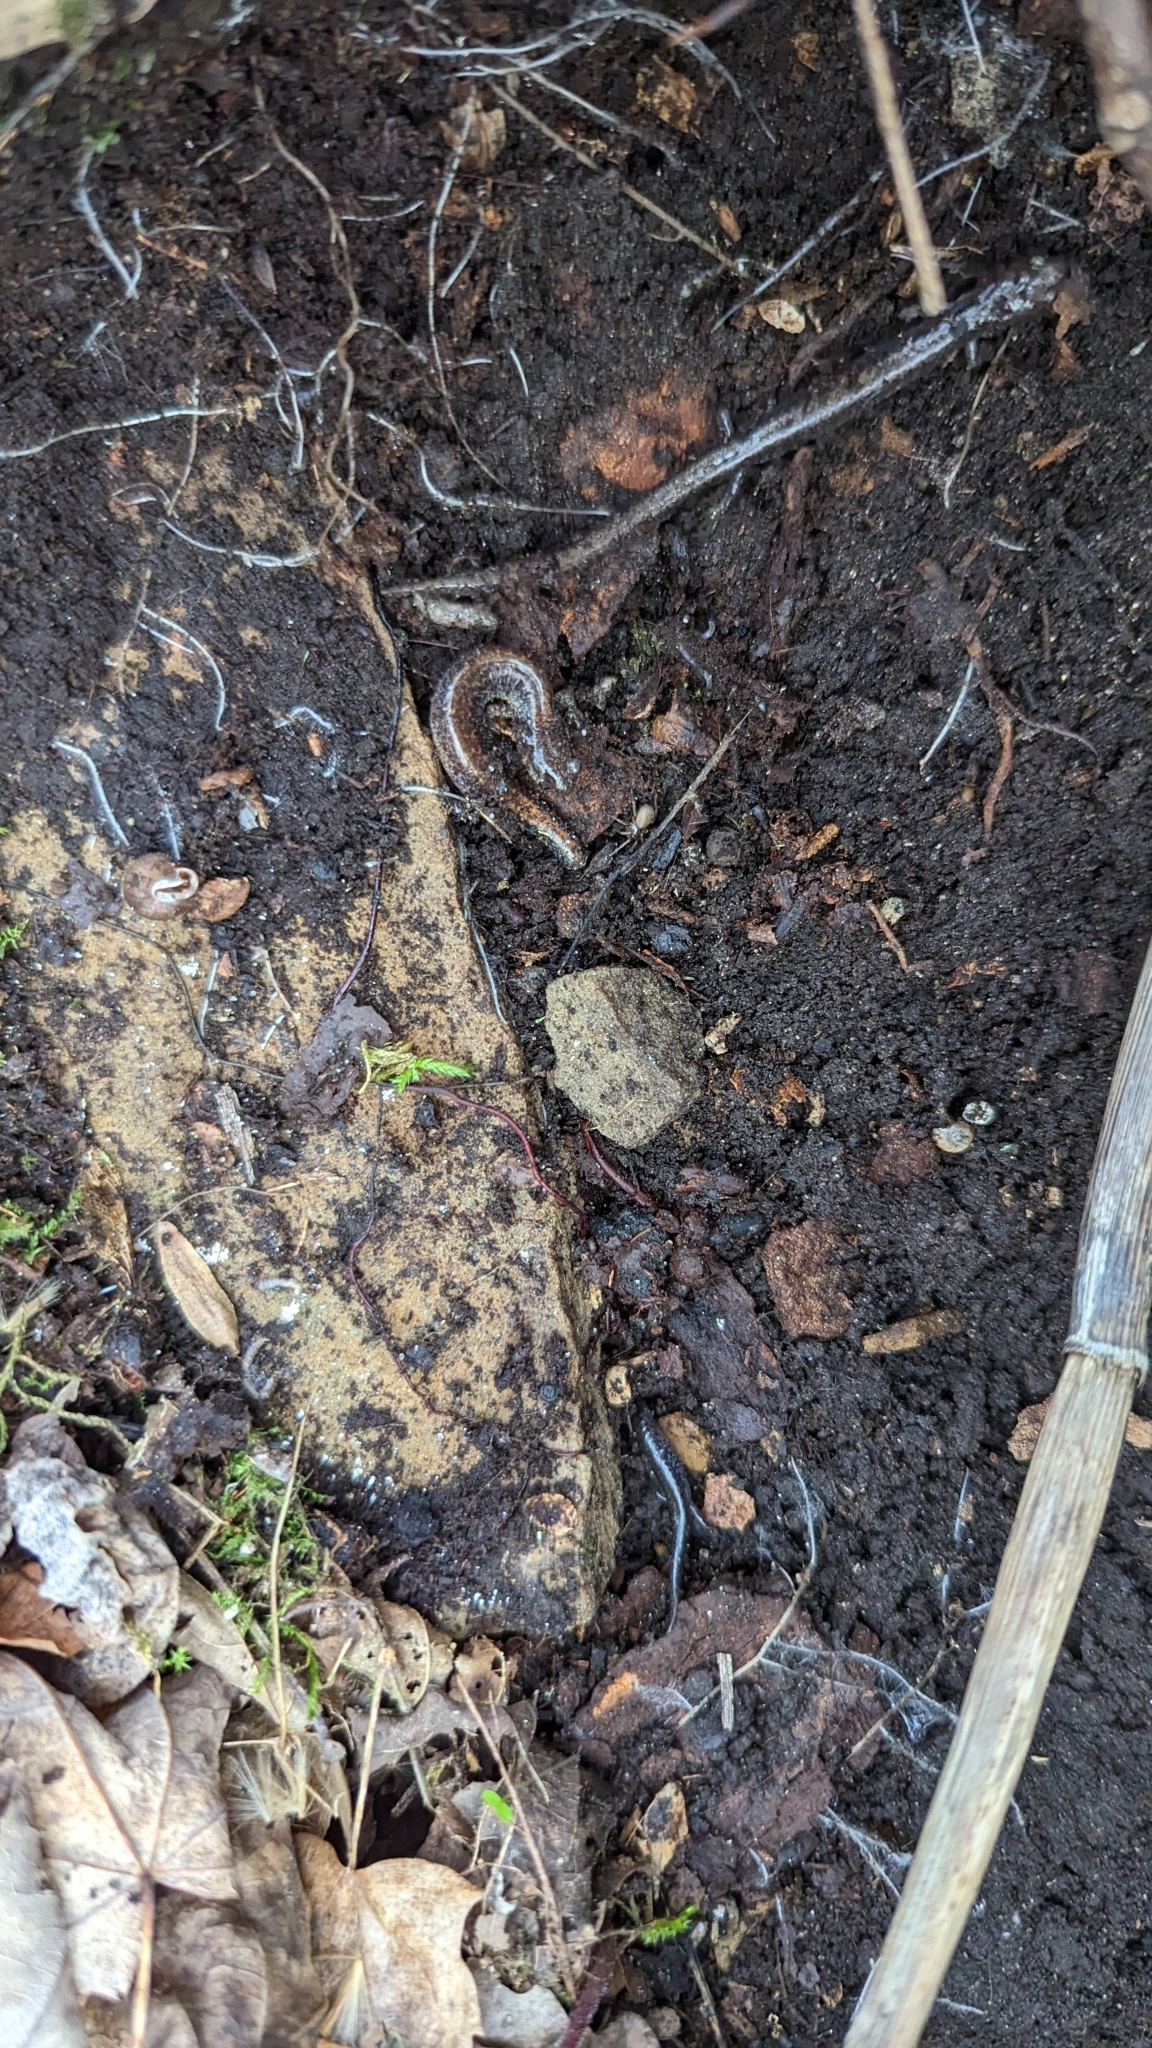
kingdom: Animalia
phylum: Chordata
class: Amphibia
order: Caudata
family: Plethodontidae
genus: Plethodon
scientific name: Plethodon cinereus
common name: Redback salamander
